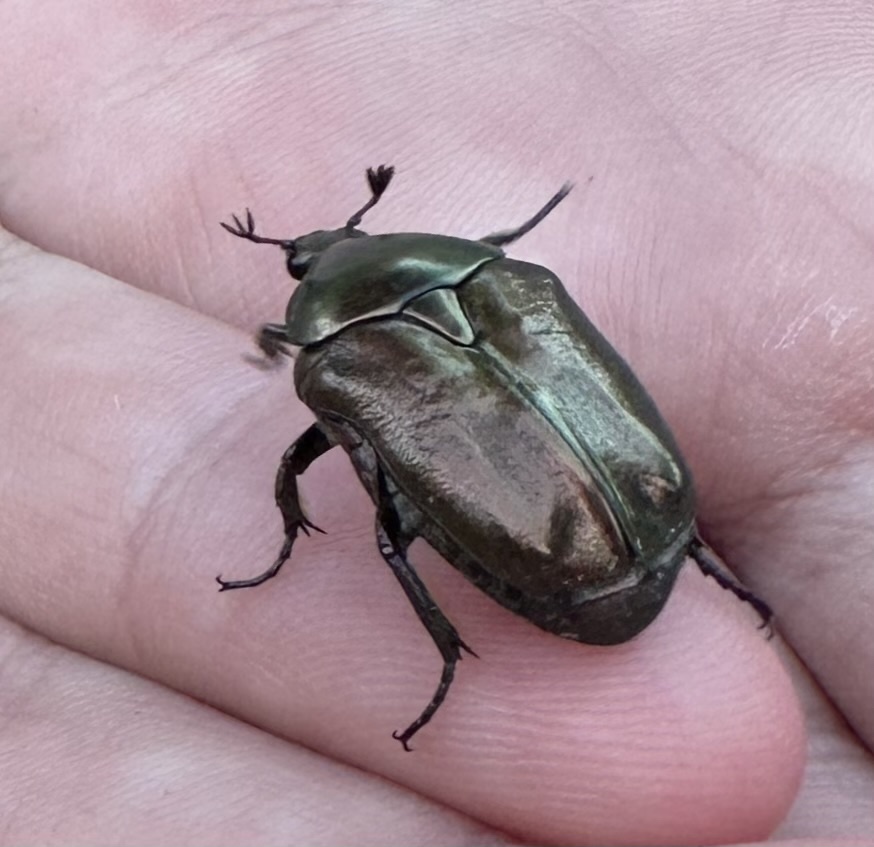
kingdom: Animalia
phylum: Arthropoda
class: Insecta
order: Coleoptera
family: Scarabaeidae
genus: Protaetia
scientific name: Protaetia cuprea
